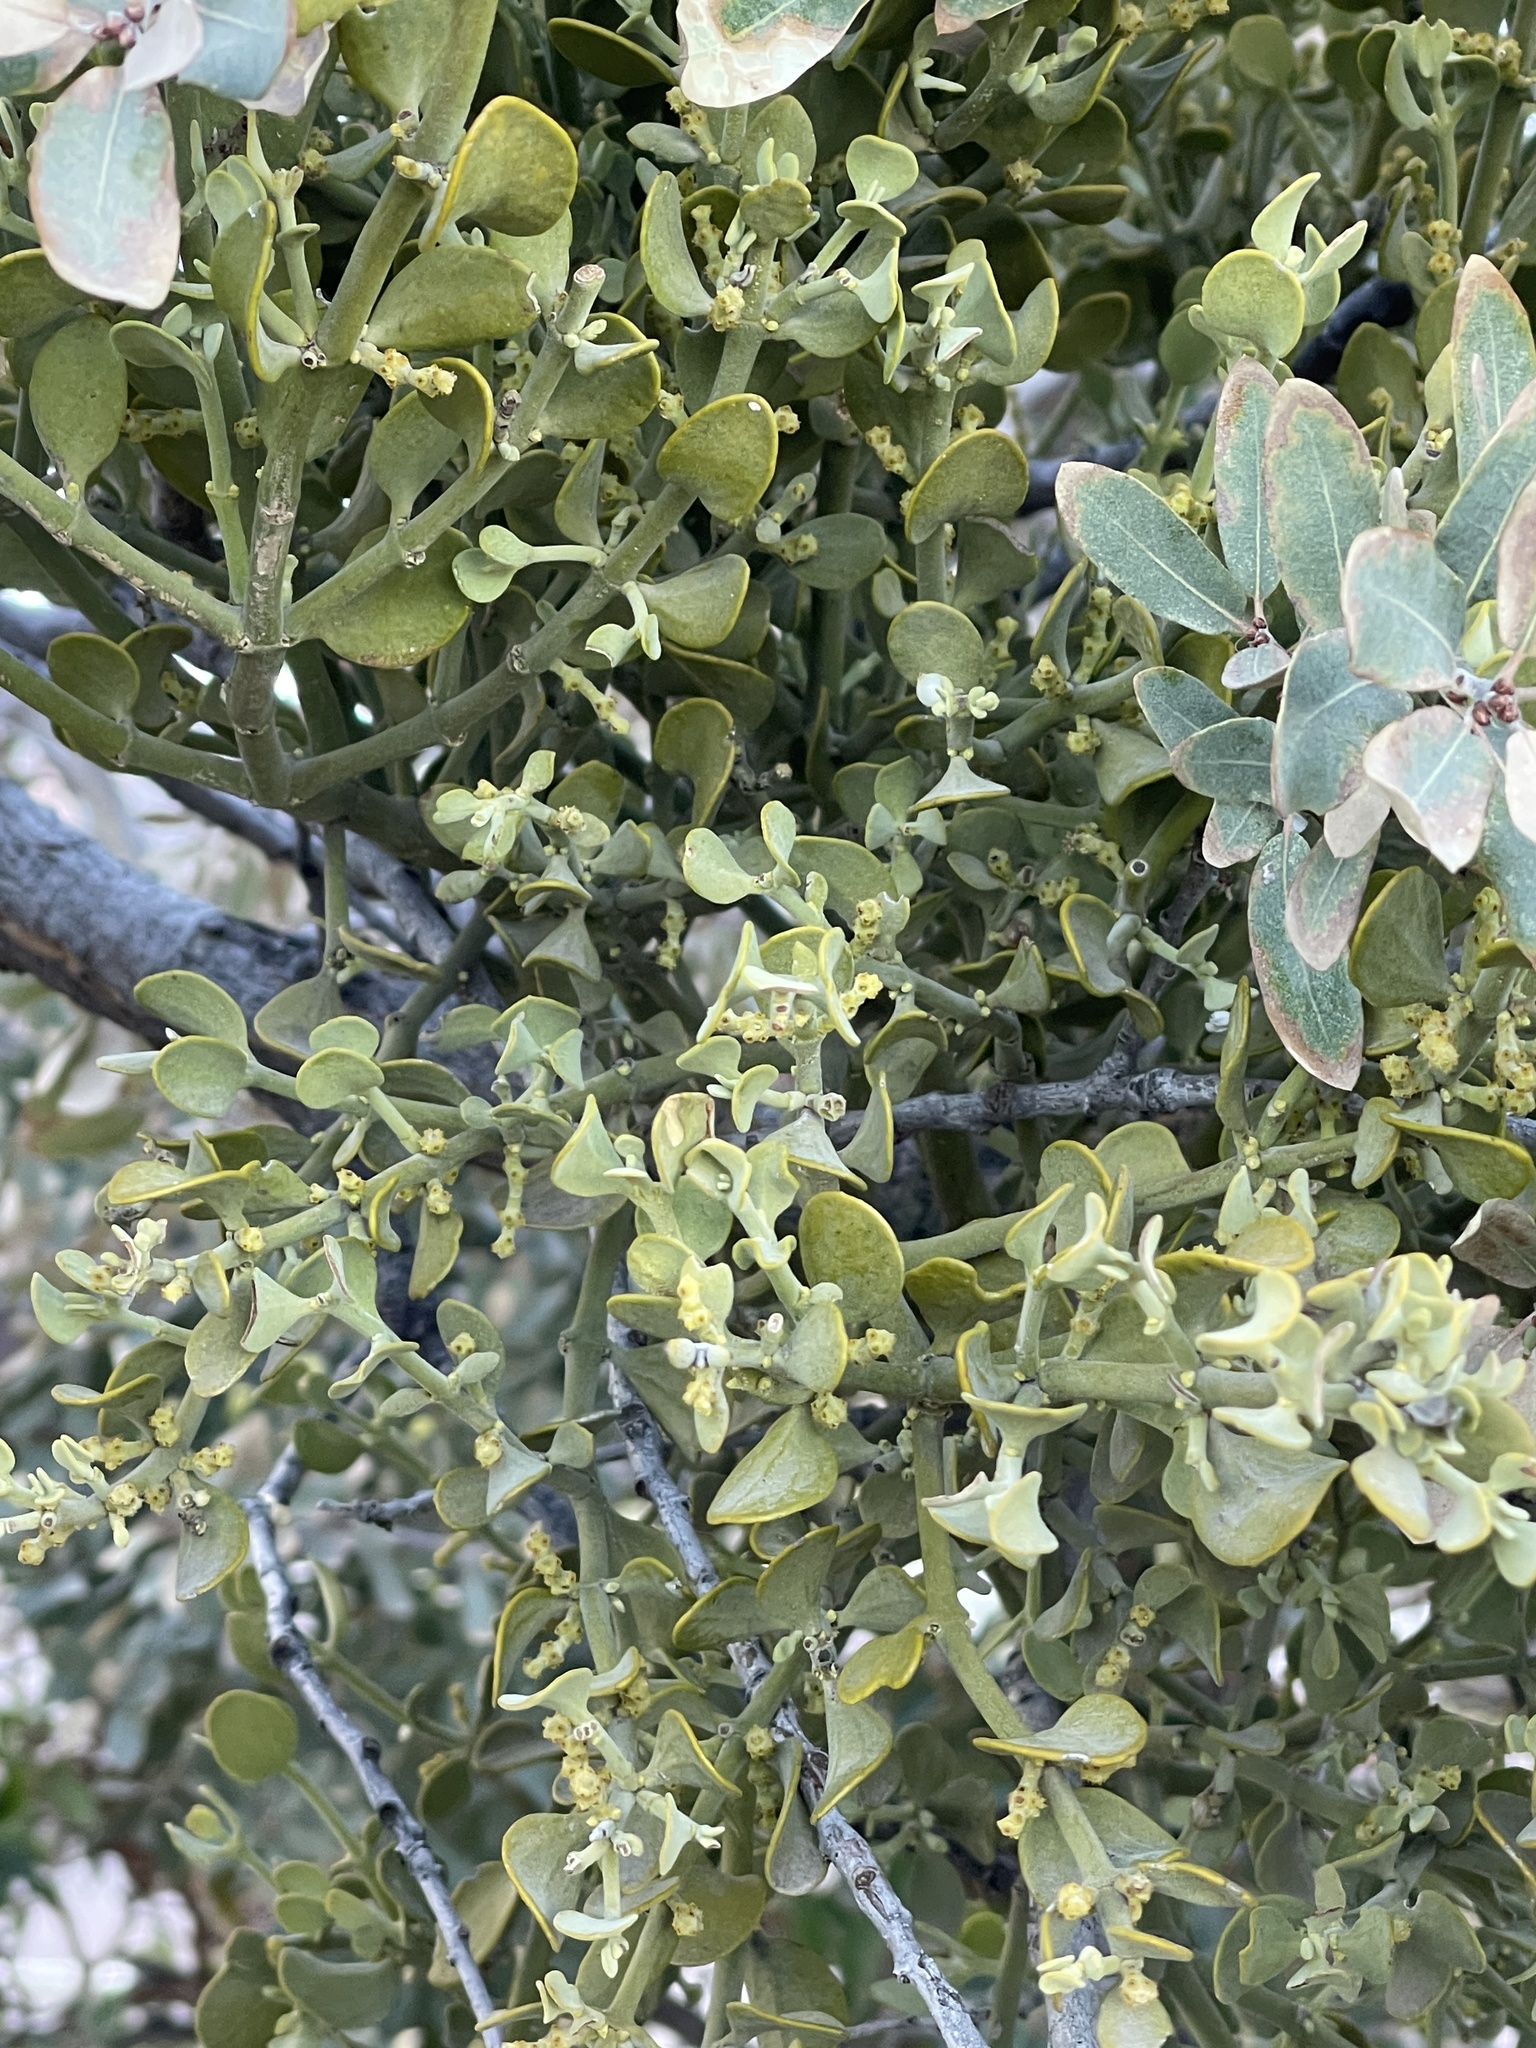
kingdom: Plantae
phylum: Tracheophyta
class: Magnoliopsida
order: Santalales
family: Viscaceae
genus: Phoradendron
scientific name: Phoradendron leucarpum
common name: Pacific mistletoe
